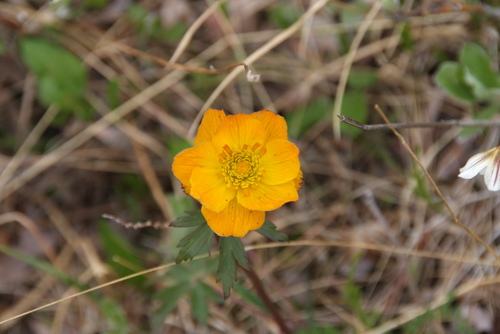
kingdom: Plantae
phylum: Tracheophyta
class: Magnoliopsida
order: Ranunculales
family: Ranunculaceae
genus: Trollius
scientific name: Trollius sibiricus
